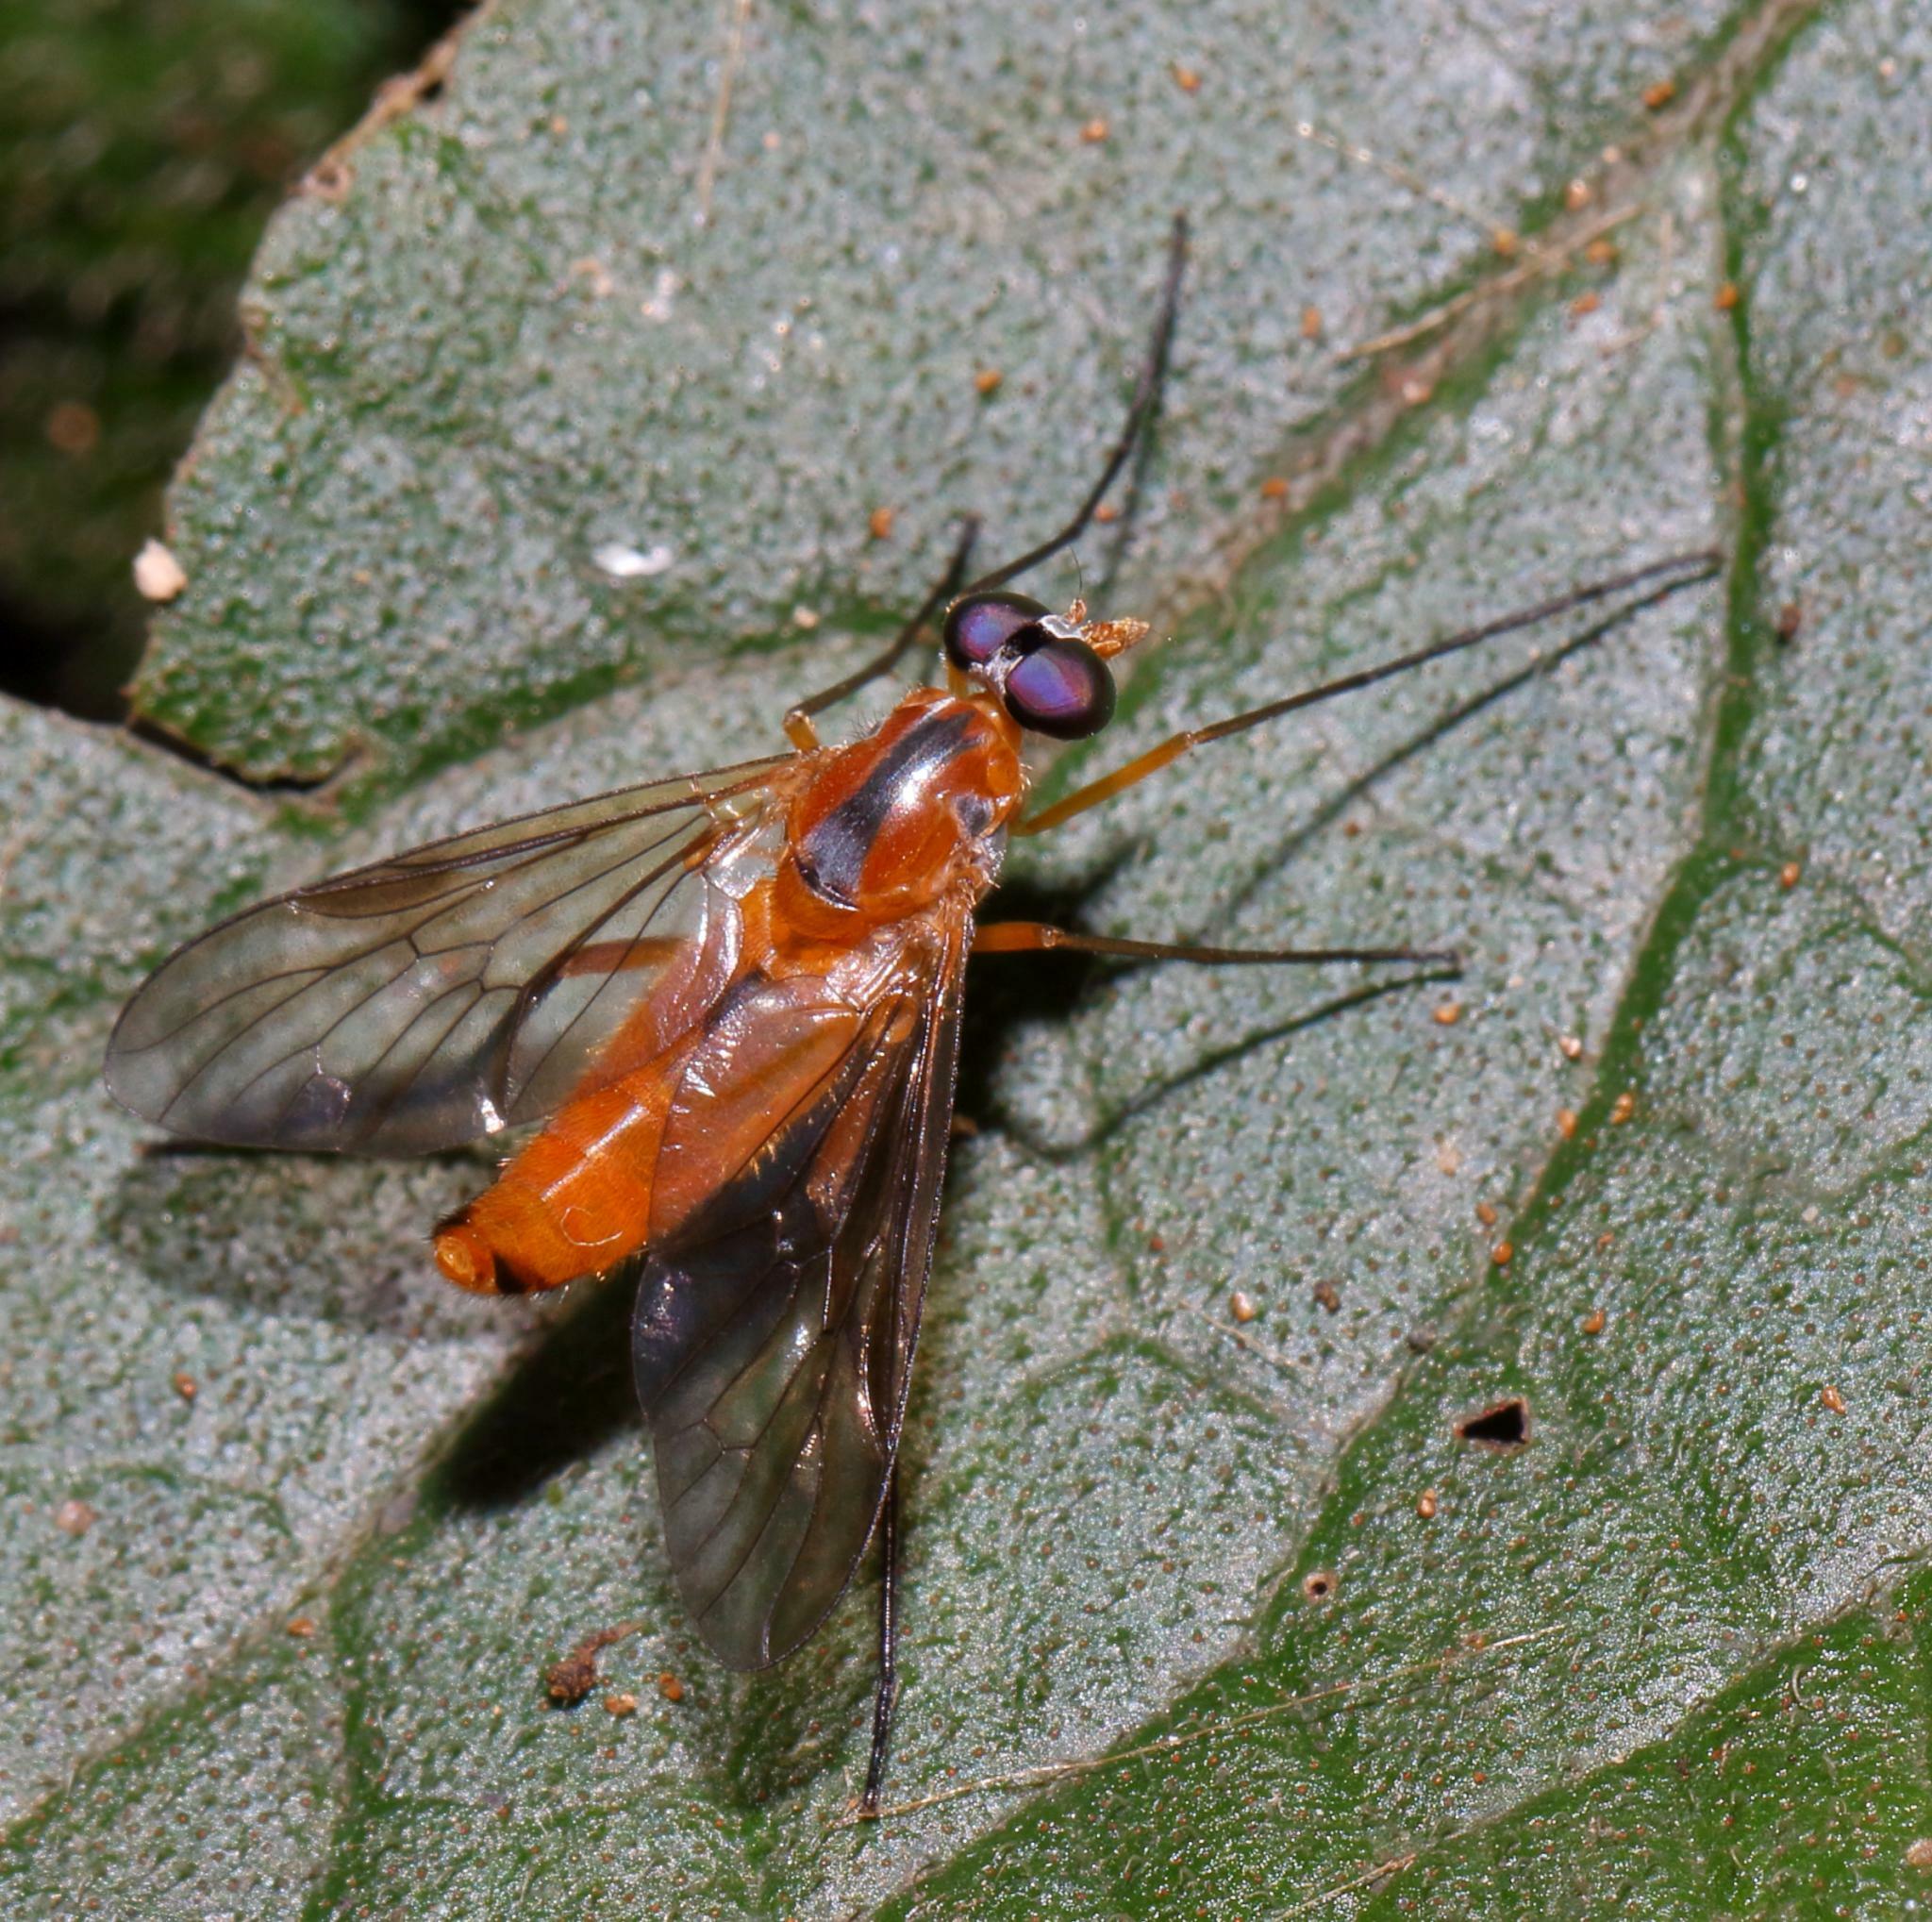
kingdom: Animalia
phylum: Arthropoda
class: Insecta
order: Diptera
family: Athericidae
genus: Suragina
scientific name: Suragina monogramma
